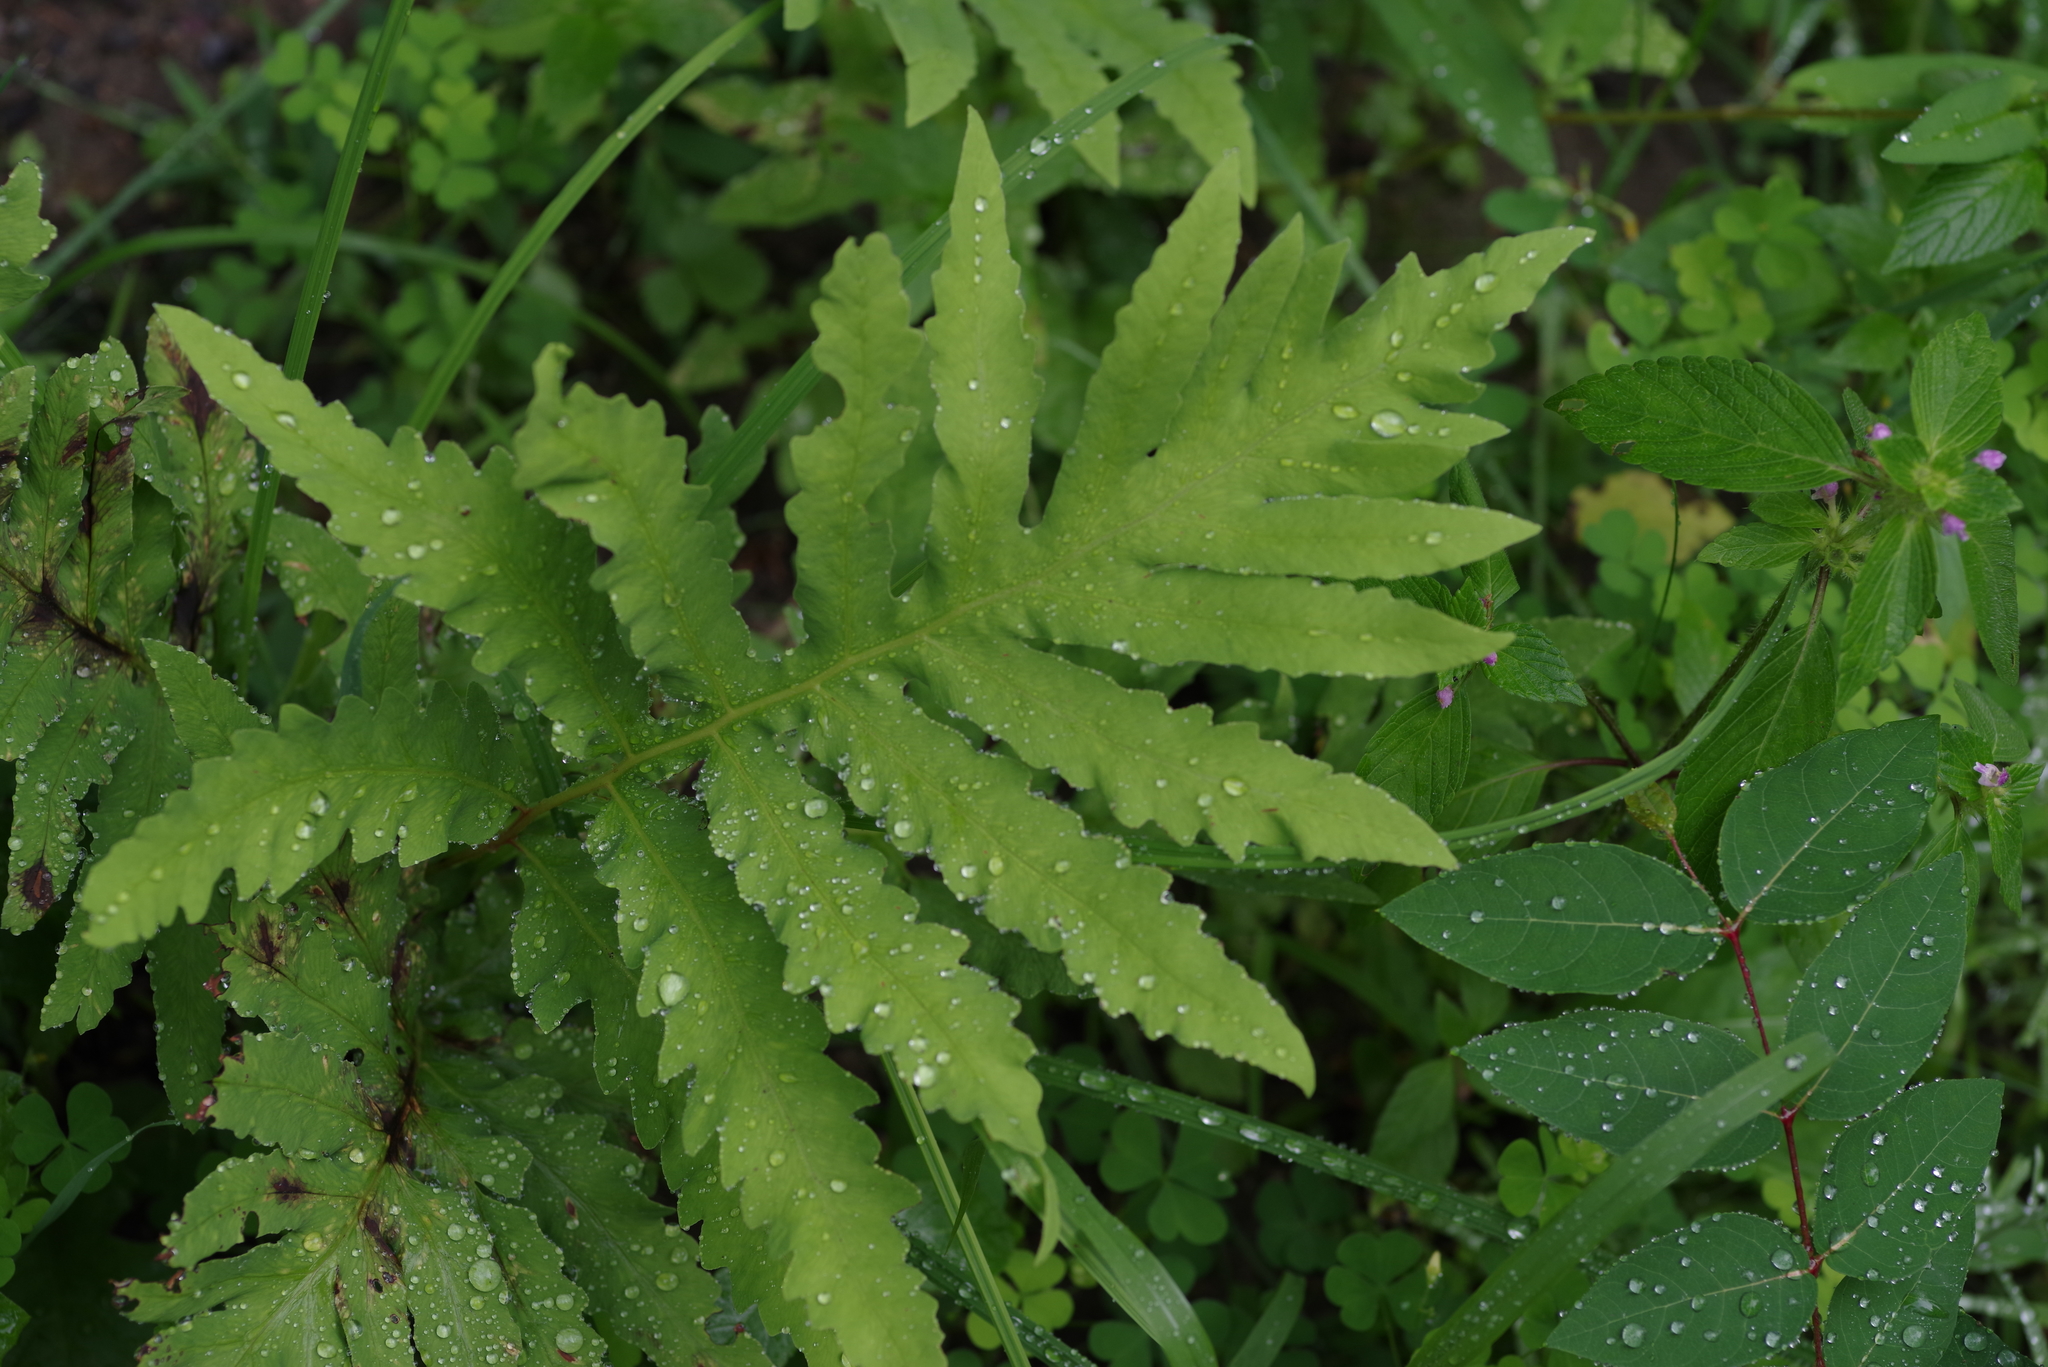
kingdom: Plantae
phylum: Tracheophyta
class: Polypodiopsida
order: Polypodiales
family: Onocleaceae
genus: Onoclea
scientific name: Onoclea sensibilis
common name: Sensitive fern
